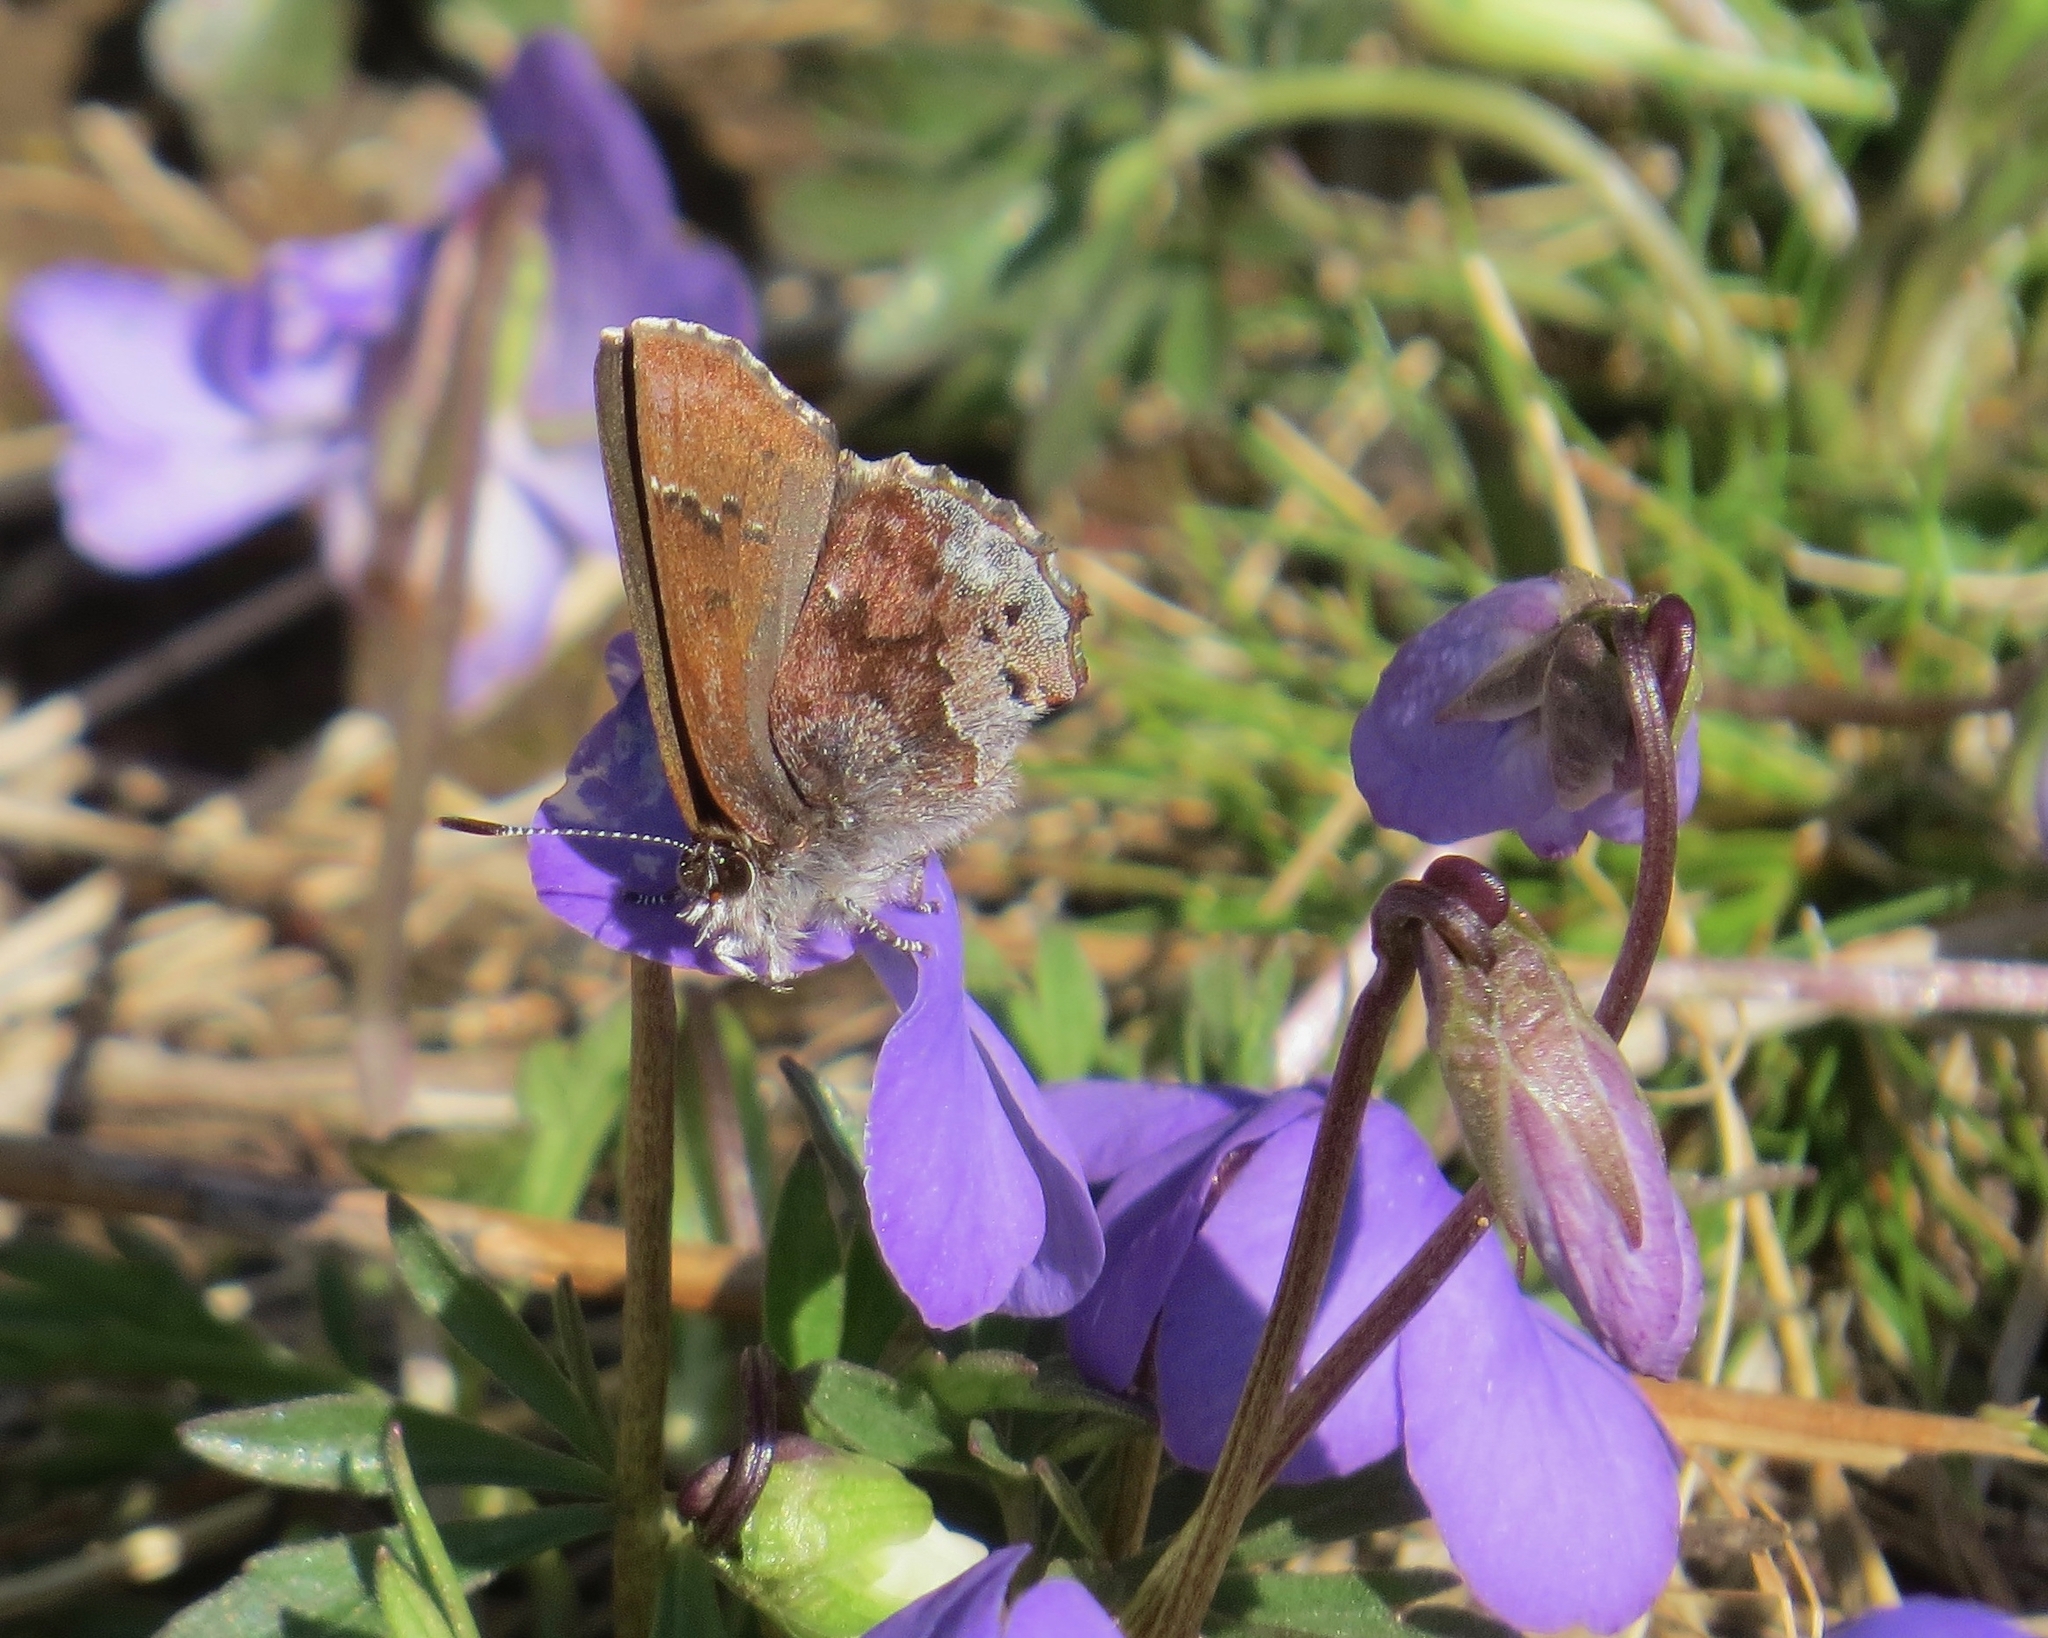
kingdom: Animalia
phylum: Arthropoda
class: Insecta
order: Lepidoptera
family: Lycaenidae
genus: Thecla
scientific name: Thecla irus
